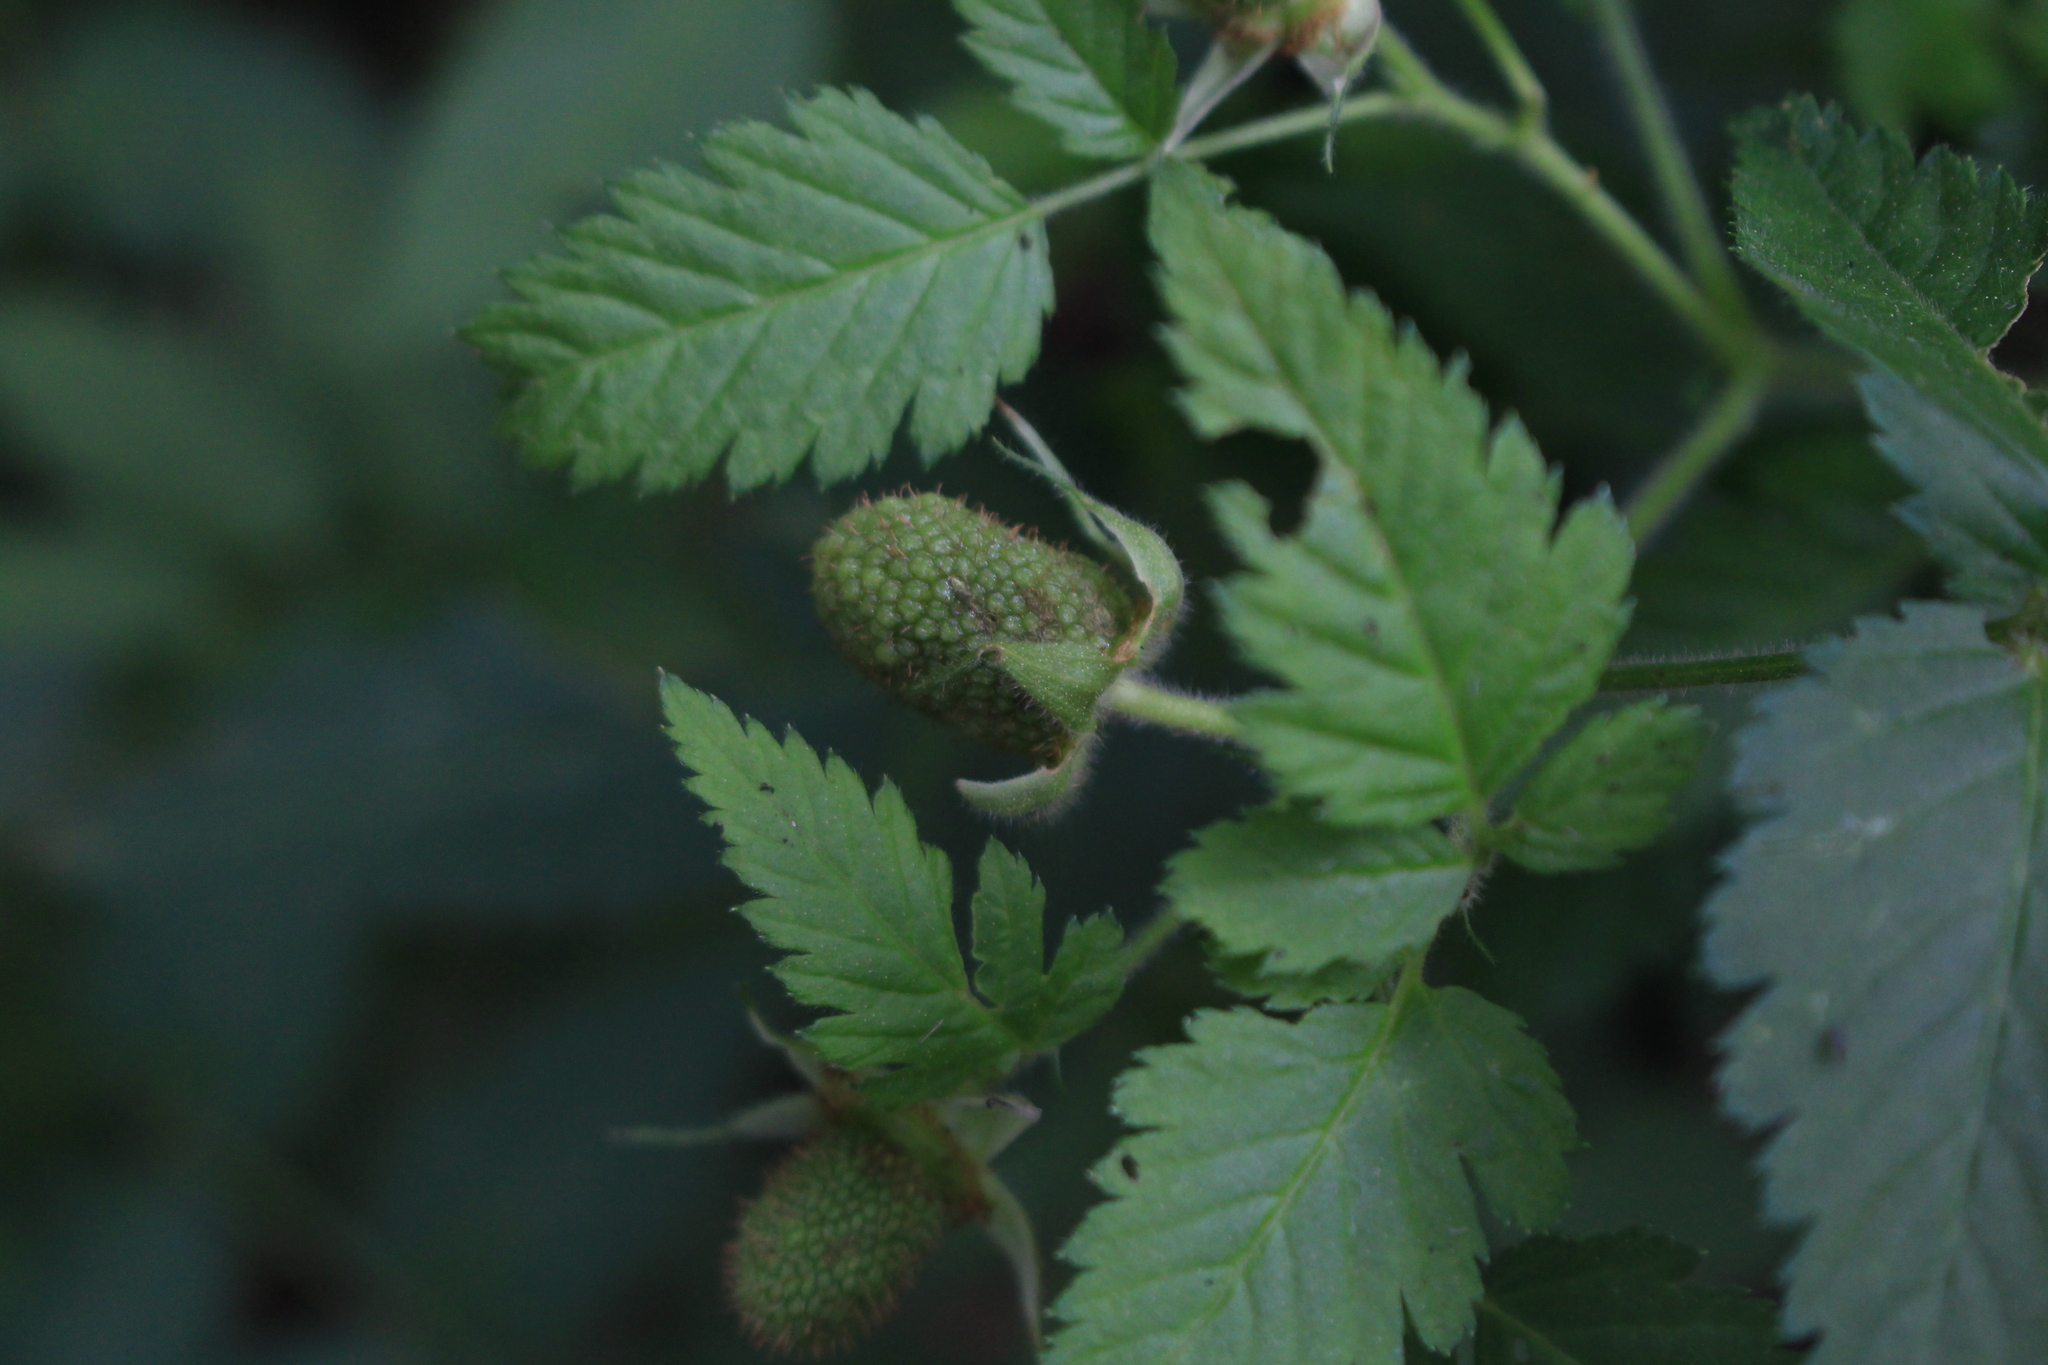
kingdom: Plantae
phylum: Tracheophyta
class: Magnoliopsida
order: Rosales
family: Rosaceae
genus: Rubus
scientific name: Rubus rosifolius
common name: Roseleaf raspberry
